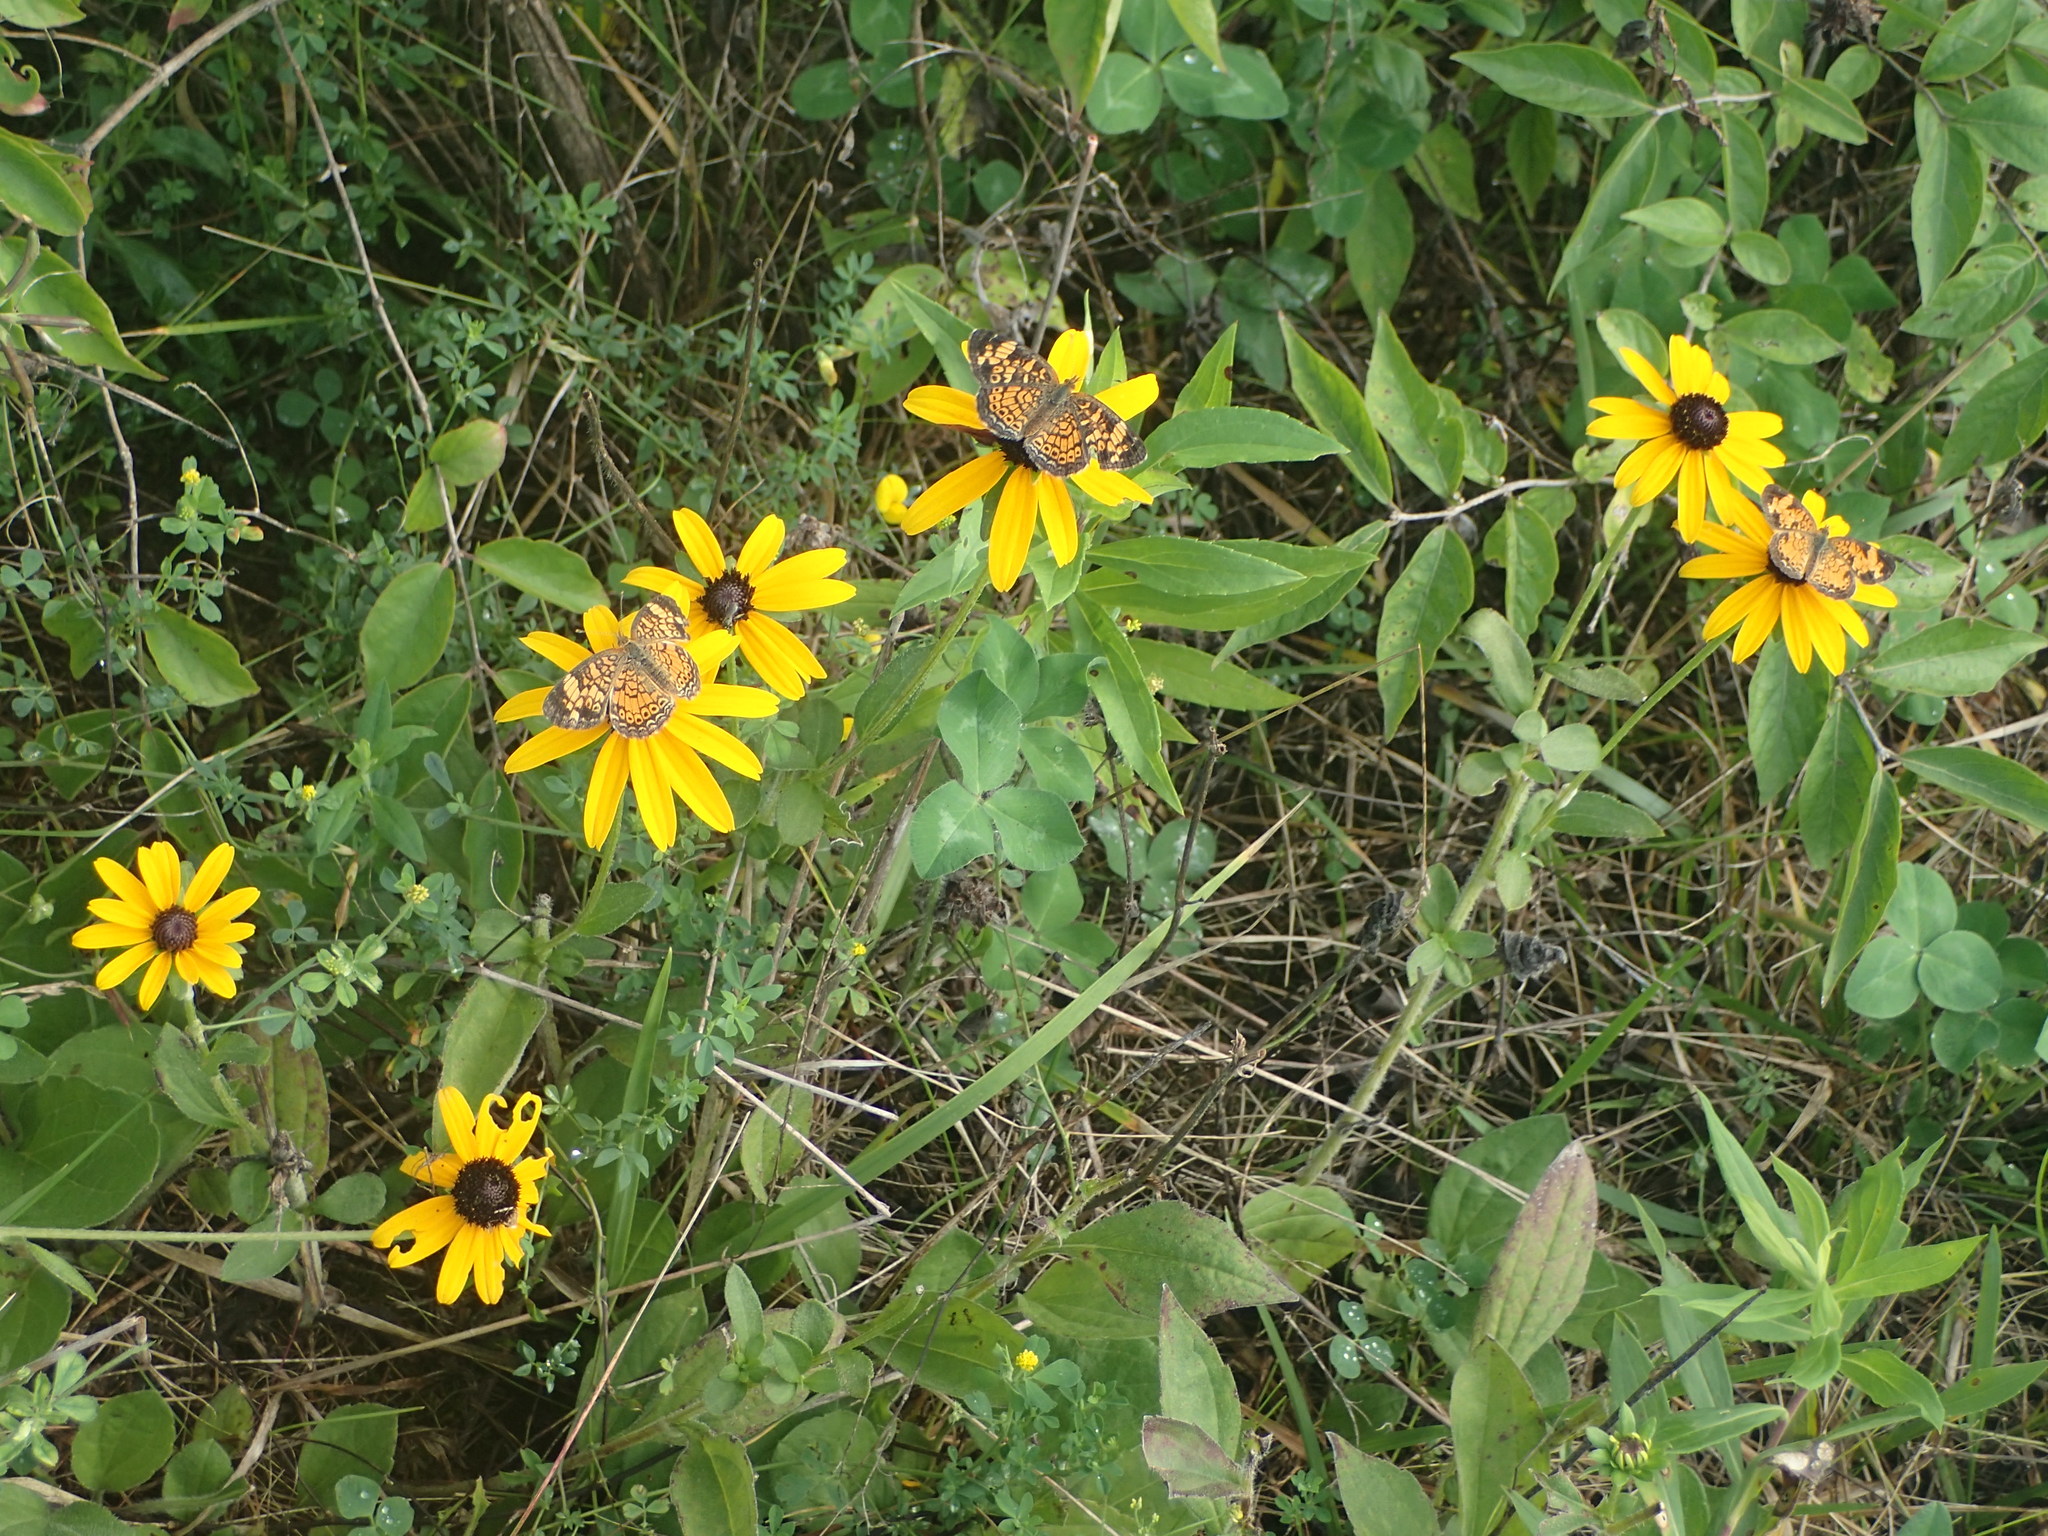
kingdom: Animalia
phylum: Arthropoda
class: Insecta
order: Lepidoptera
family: Nymphalidae
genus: Phyciodes
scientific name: Phyciodes tharos
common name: Pearl crescent
